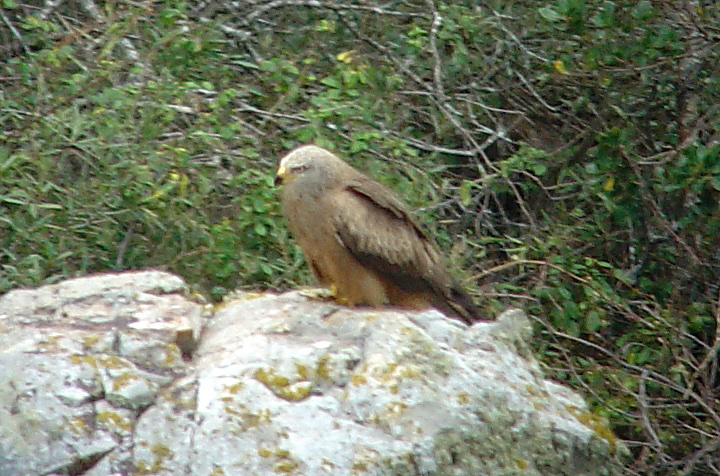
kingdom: Animalia
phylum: Chordata
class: Aves
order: Accipitriformes
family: Accipitridae
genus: Milvus
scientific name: Milvus migrans
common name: Black kite
